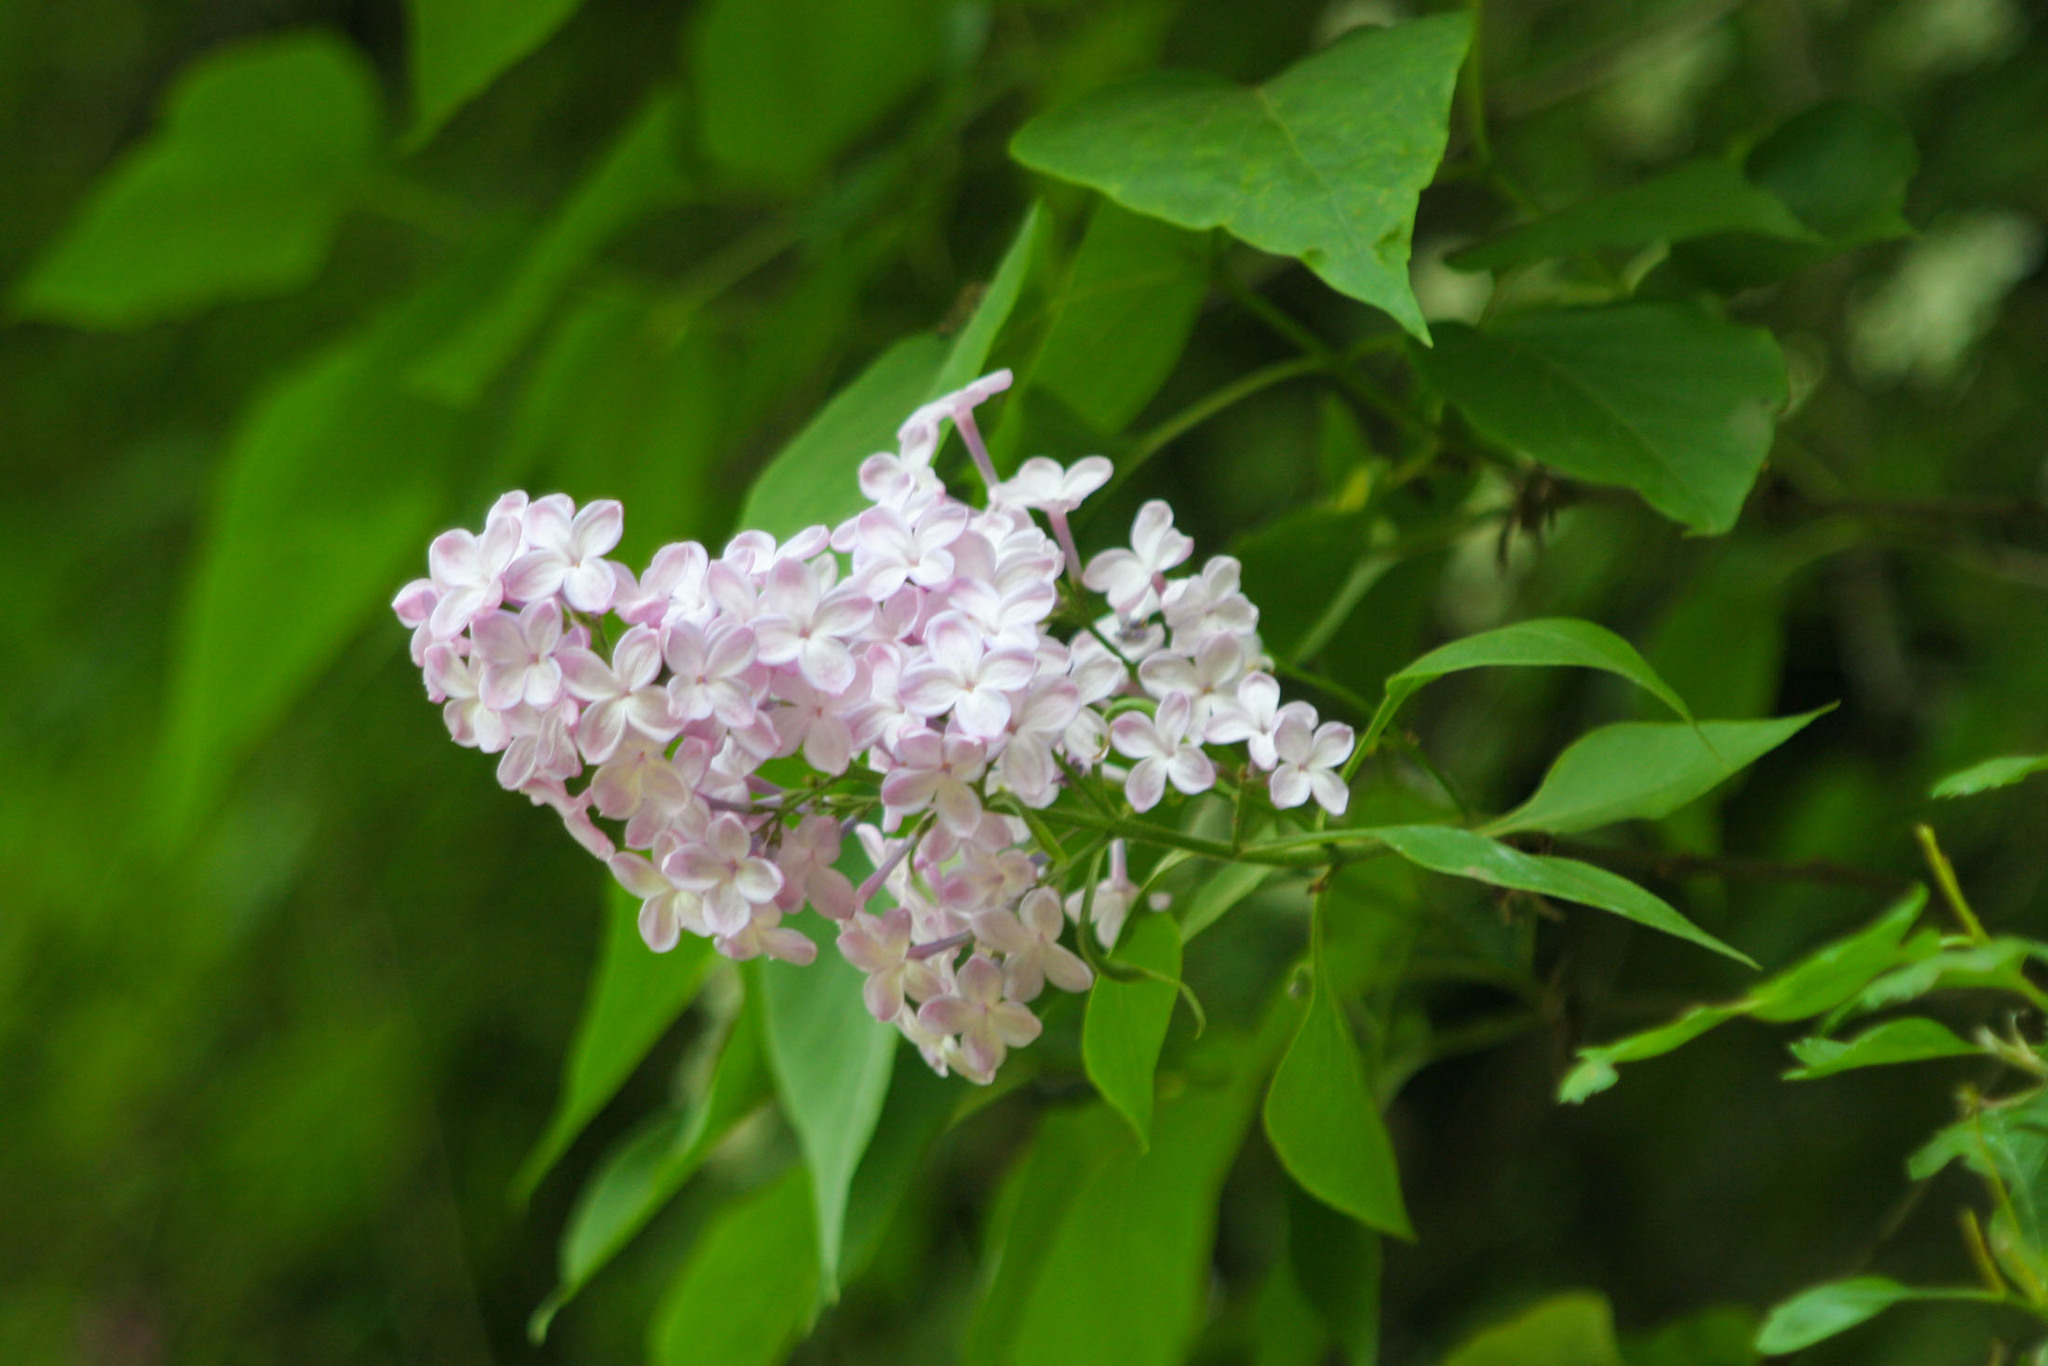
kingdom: Plantae
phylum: Tracheophyta
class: Magnoliopsida
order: Lamiales
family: Oleaceae
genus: Syringa
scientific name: Syringa vulgaris
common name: Common lilac
